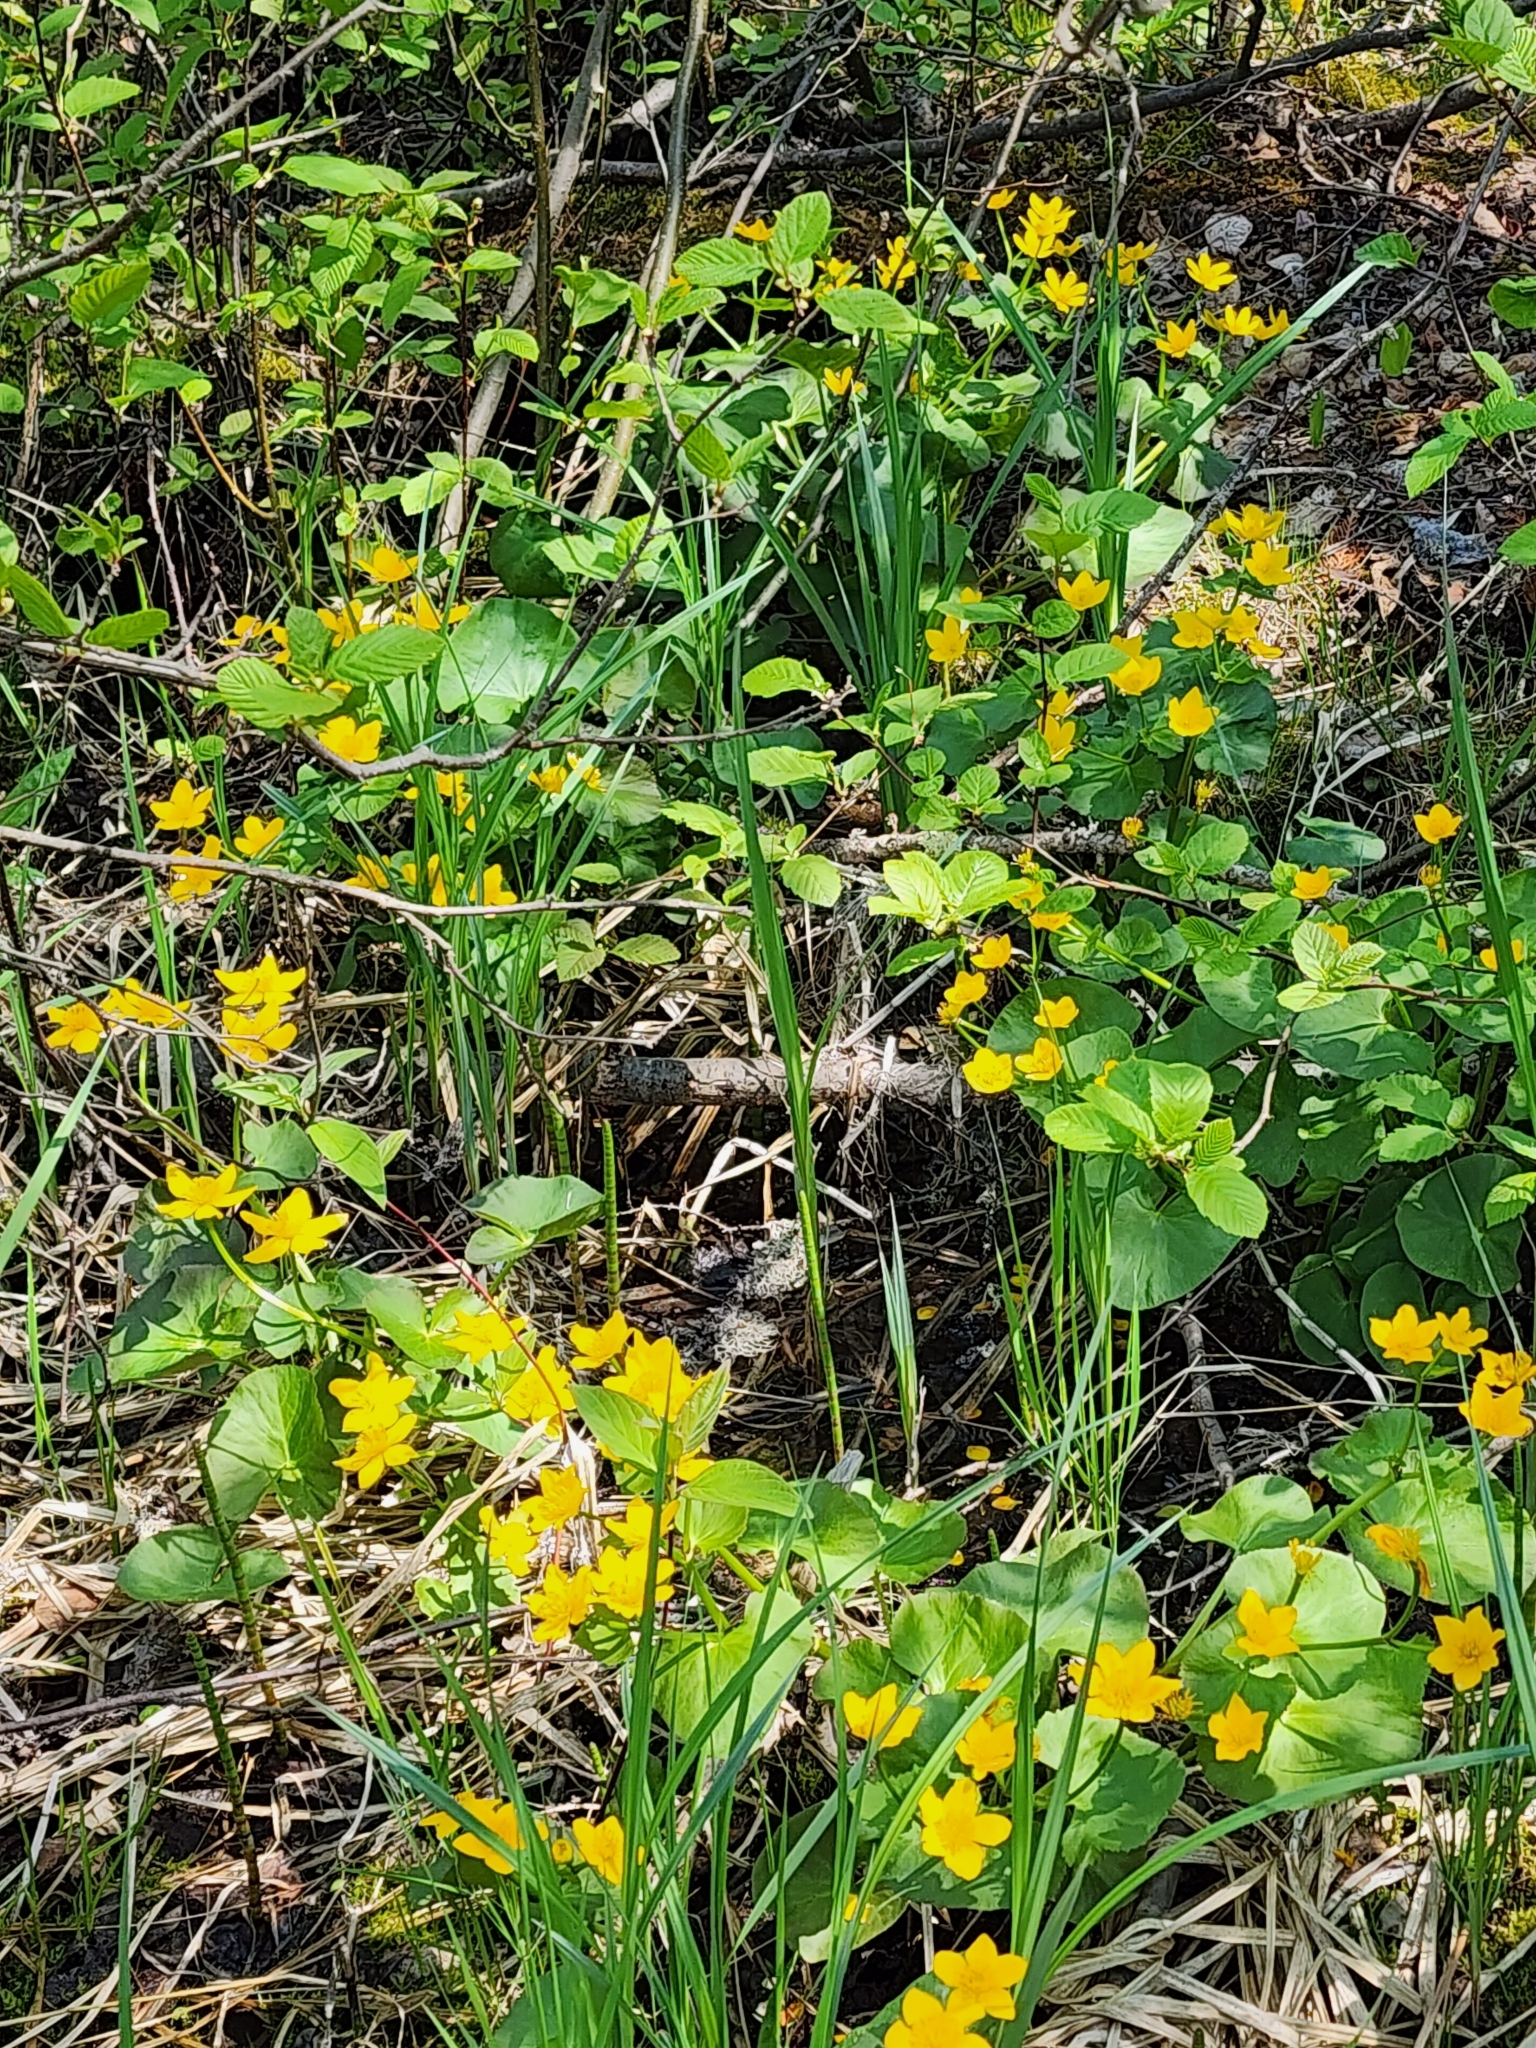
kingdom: Plantae
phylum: Tracheophyta
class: Magnoliopsida
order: Ranunculales
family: Ranunculaceae
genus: Caltha
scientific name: Caltha palustris
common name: Marsh marigold
